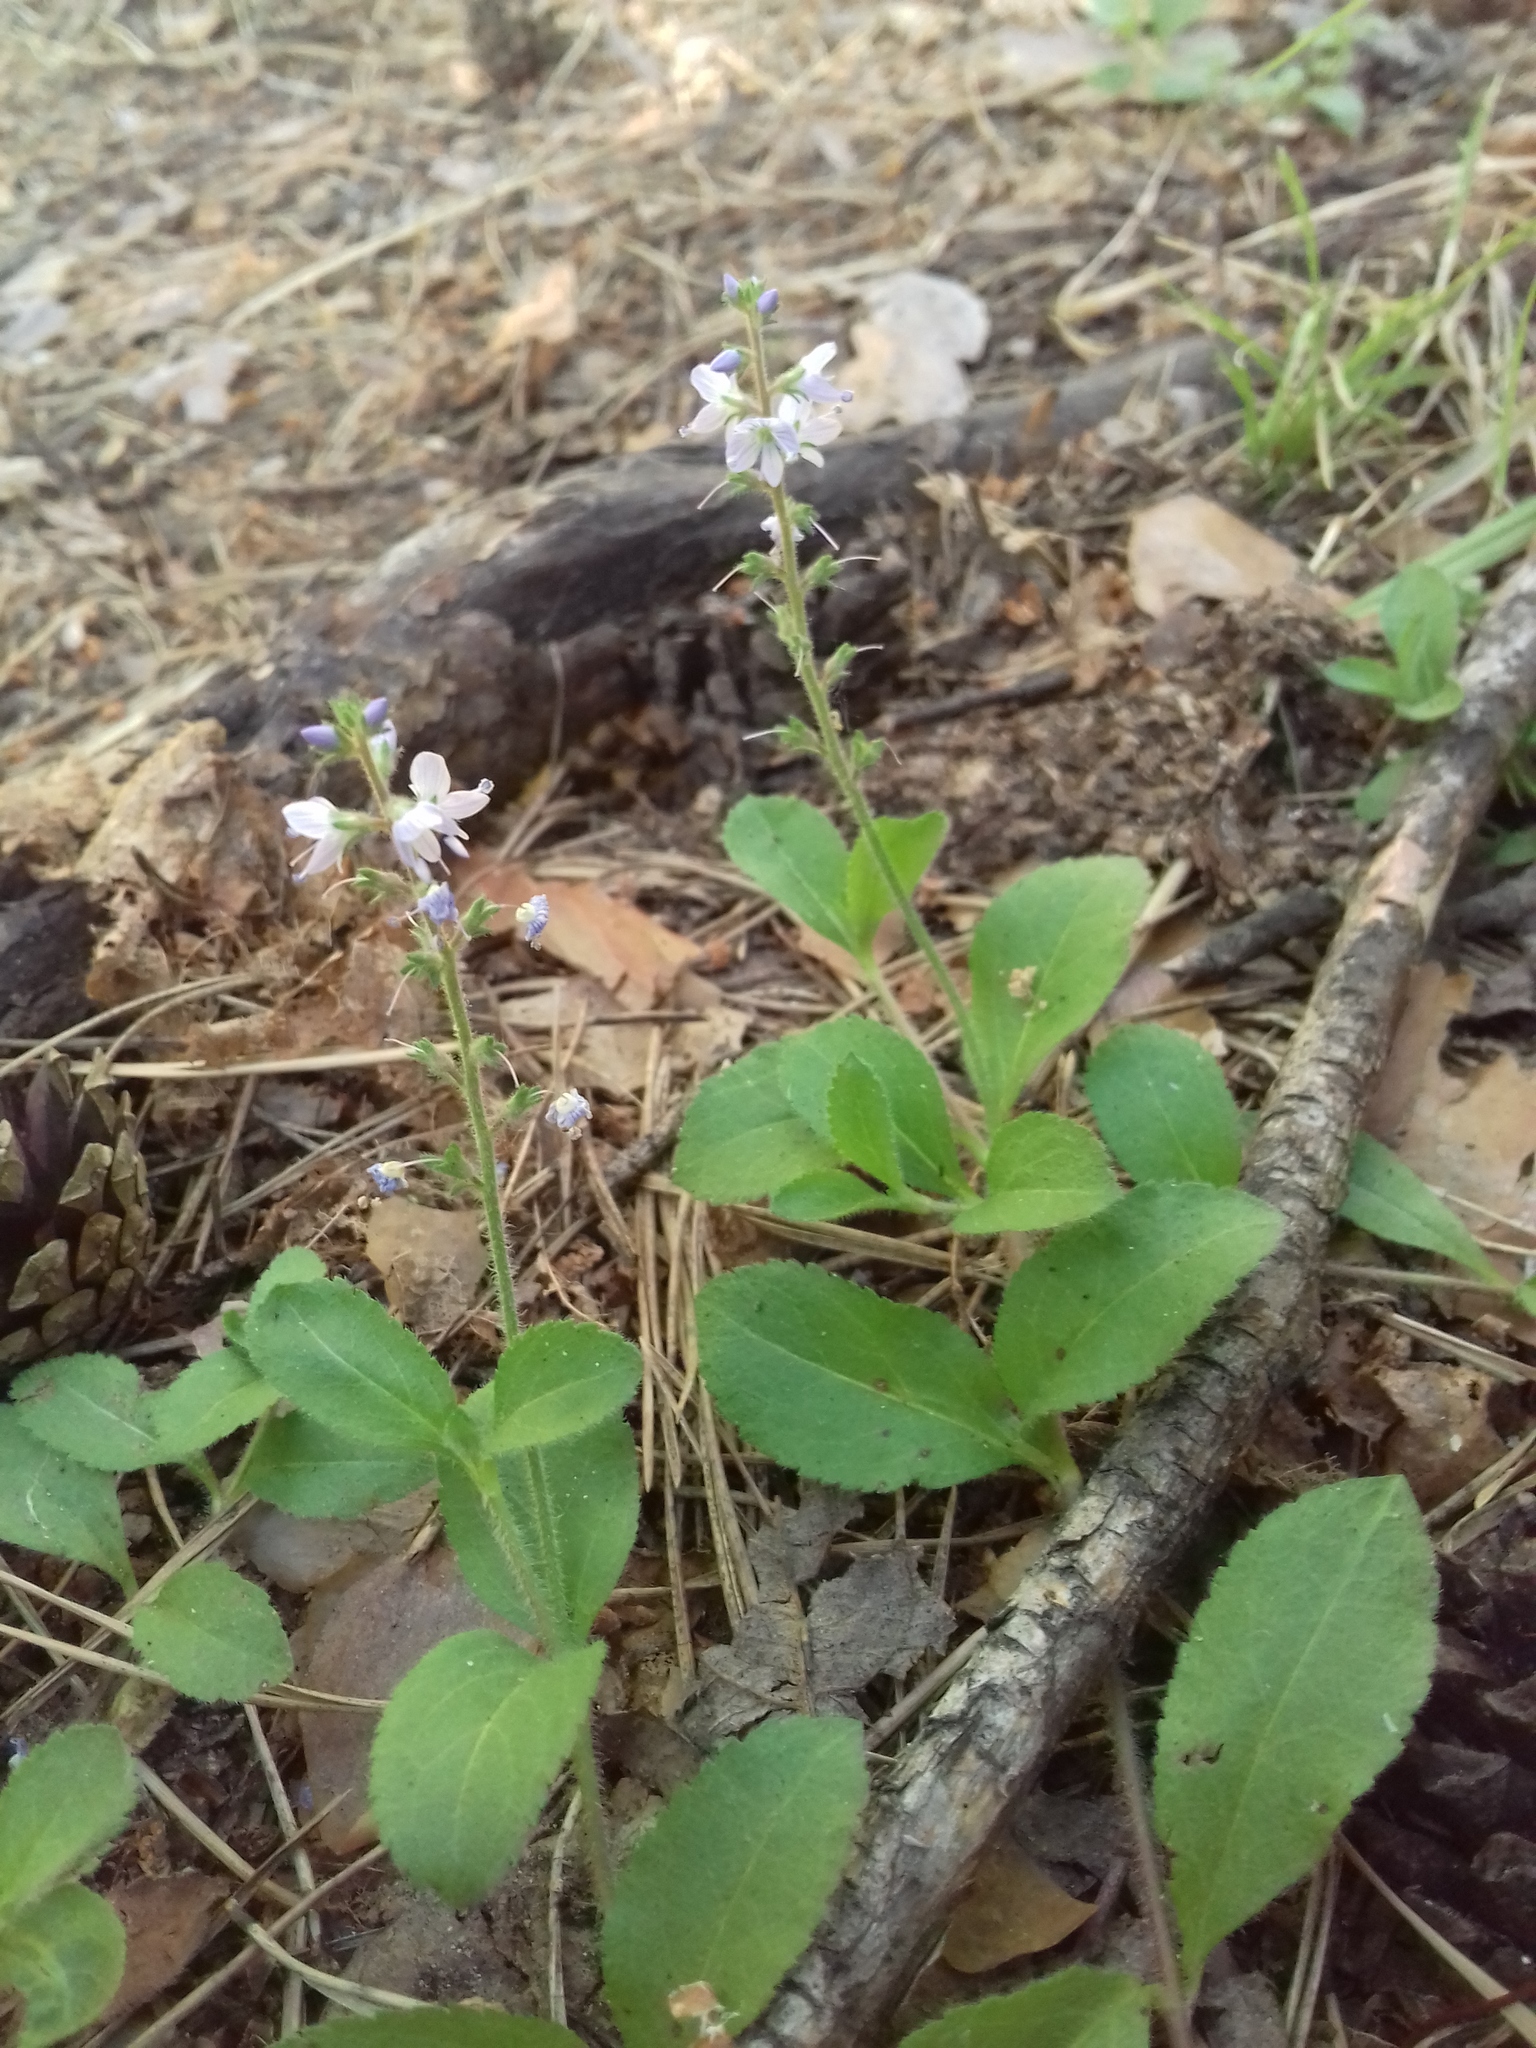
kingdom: Plantae
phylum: Tracheophyta
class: Magnoliopsida
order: Lamiales
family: Plantaginaceae
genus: Veronica
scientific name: Veronica officinalis
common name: Common speedwell
